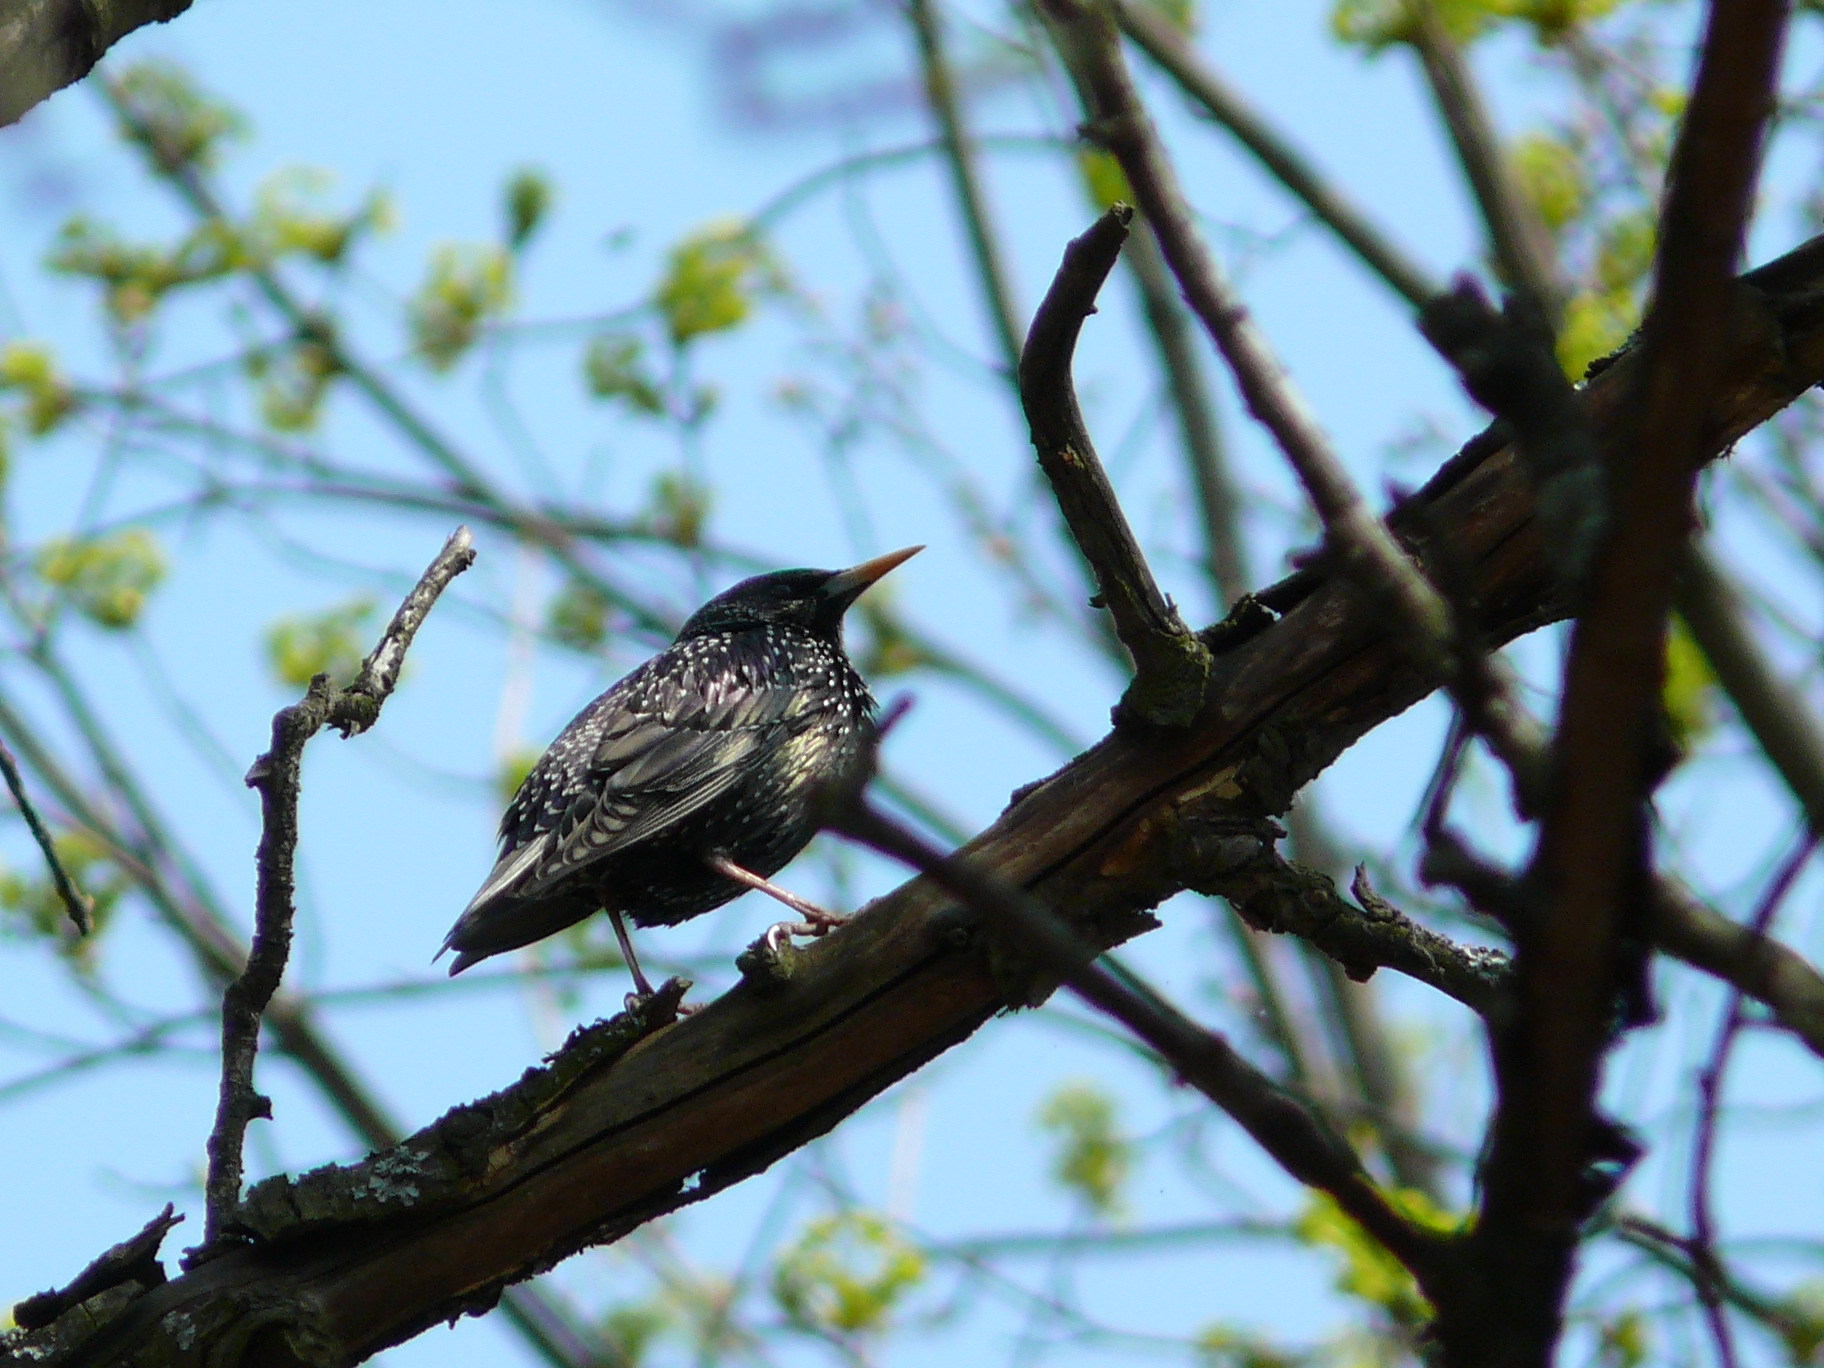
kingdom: Animalia
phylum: Chordata
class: Aves
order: Passeriformes
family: Sturnidae
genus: Sturnus
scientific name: Sturnus vulgaris
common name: Common starling
